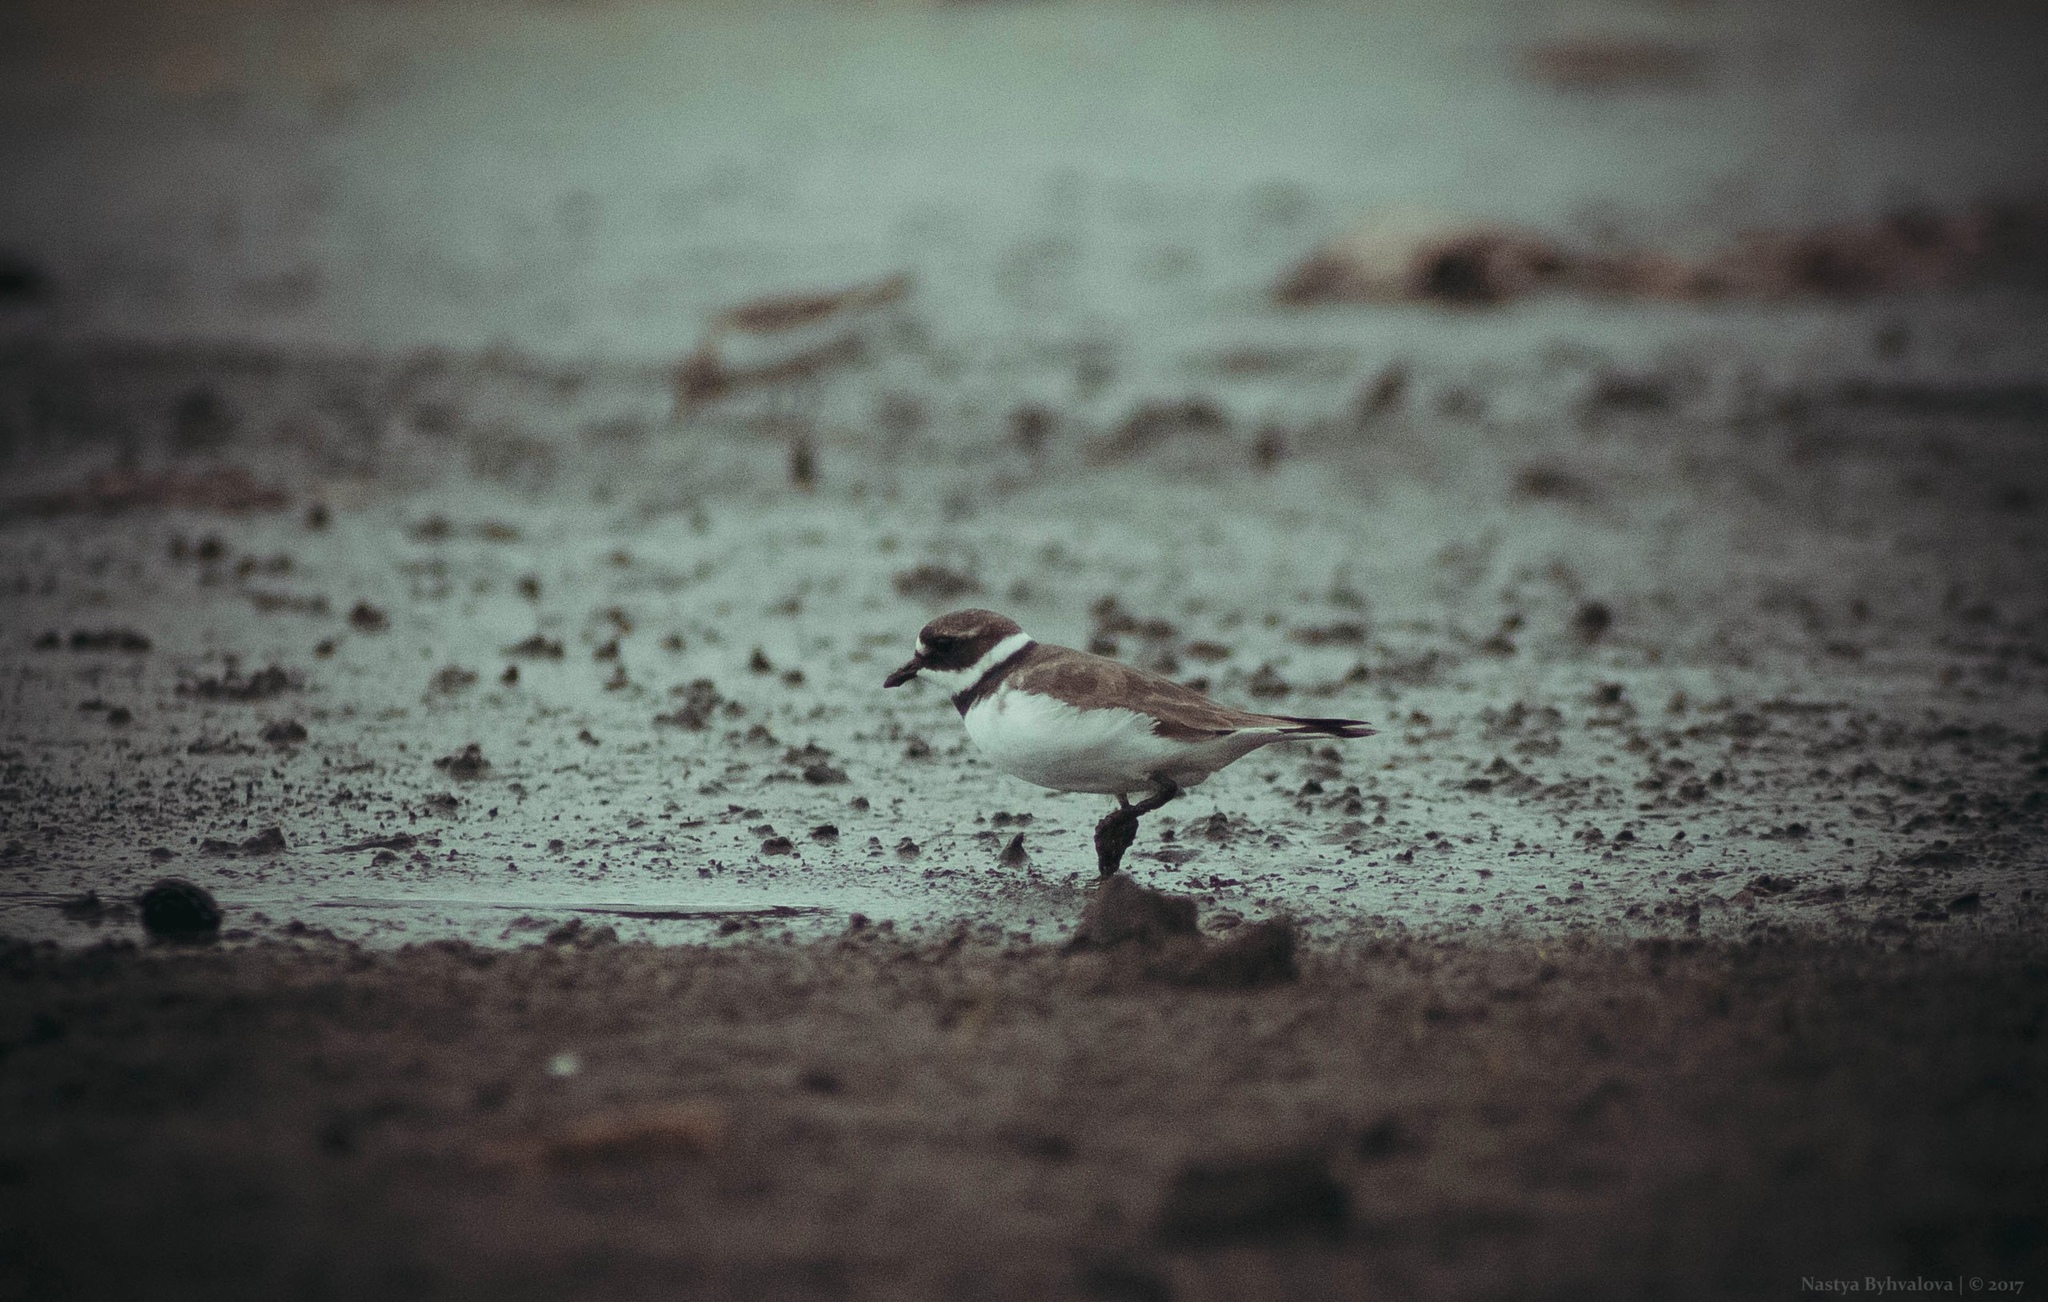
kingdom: Animalia
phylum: Chordata
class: Aves
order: Charadriiformes
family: Charadriidae
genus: Charadrius
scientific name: Charadrius hiaticula
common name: Common ringed plover
